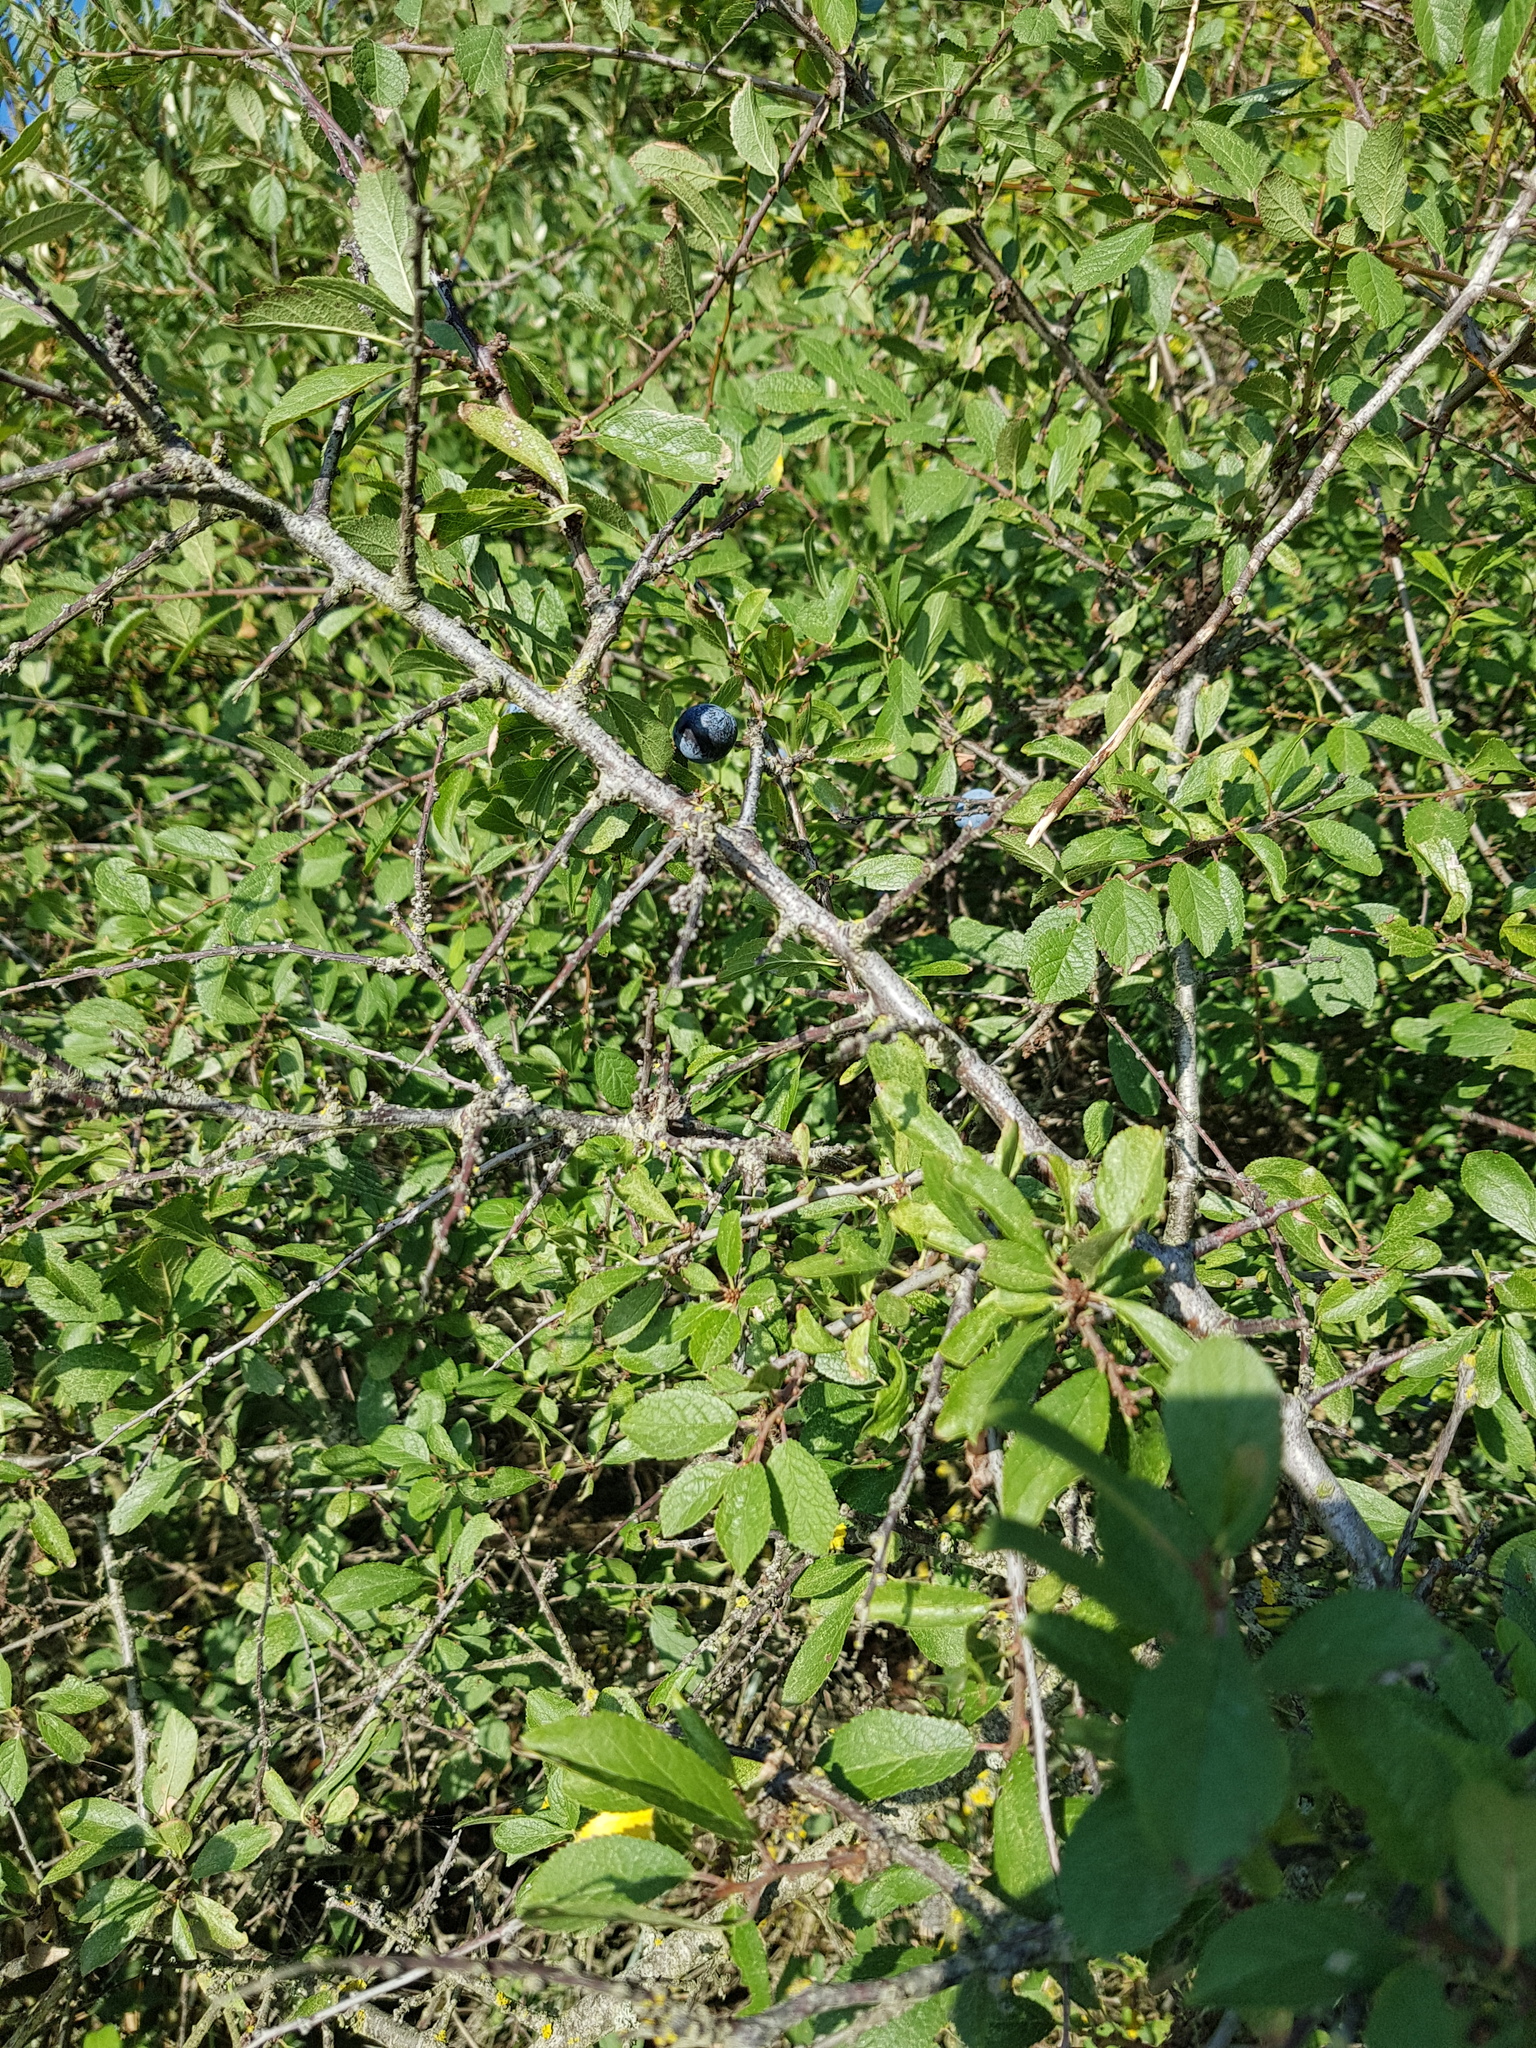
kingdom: Plantae
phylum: Tracheophyta
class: Magnoliopsida
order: Rosales
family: Rosaceae
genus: Prunus
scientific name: Prunus spinosa
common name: Blackthorn
